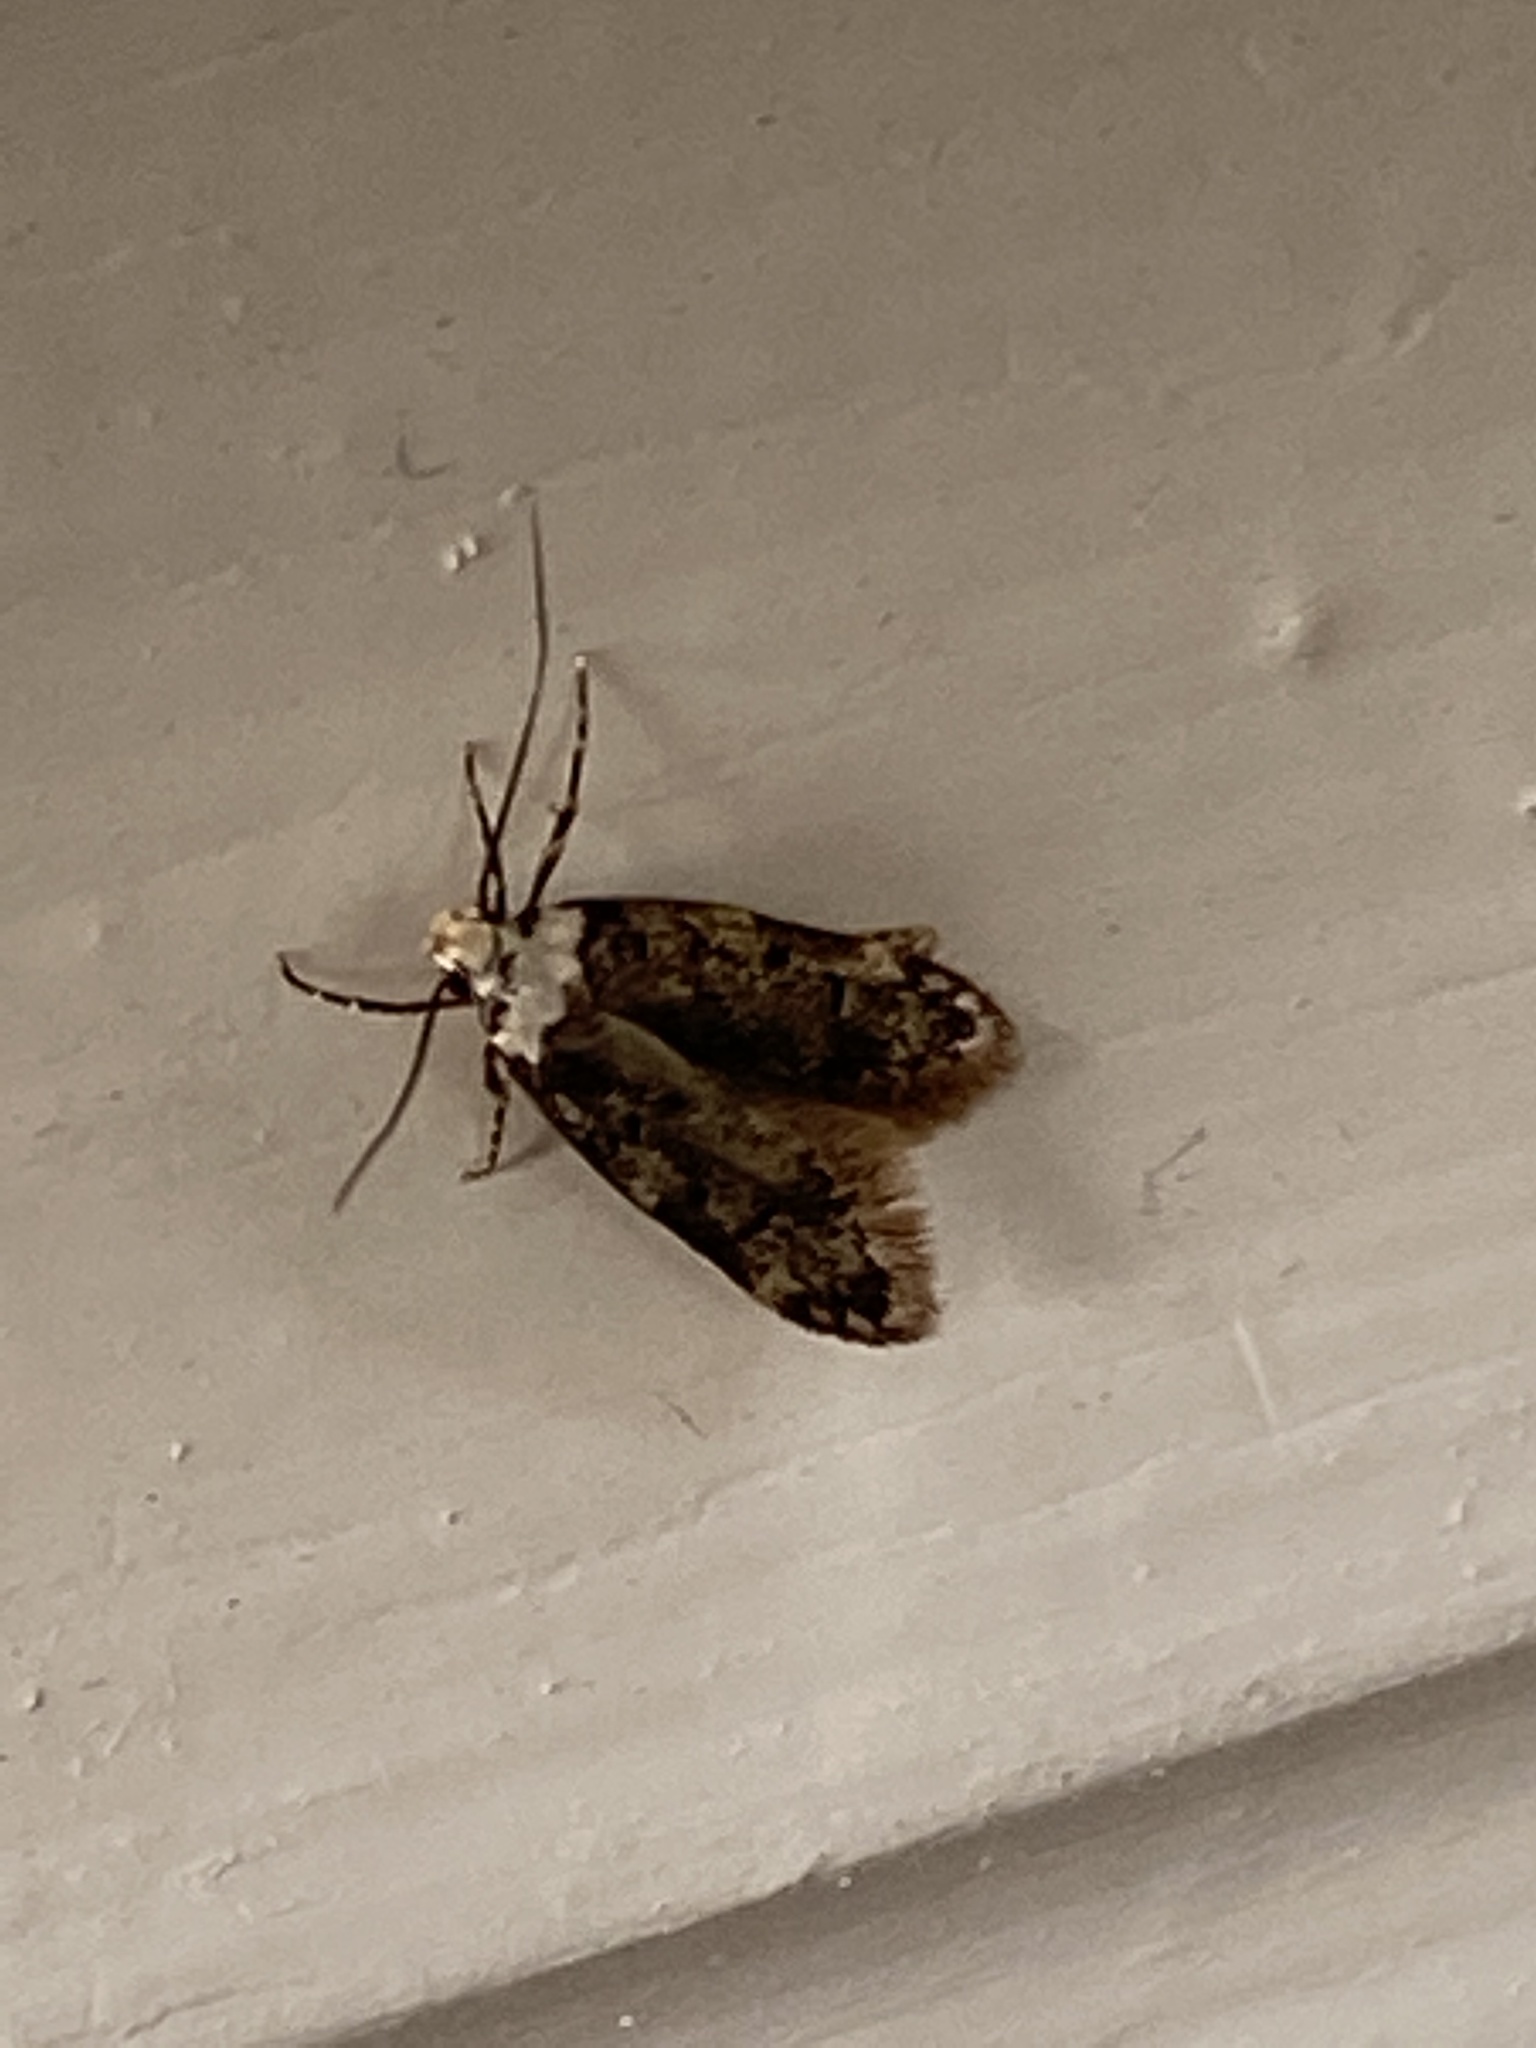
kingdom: Animalia
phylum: Arthropoda
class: Insecta
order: Lepidoptera
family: Oecophoridae
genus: Endrosis
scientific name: Endrosis sarcitrella
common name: White-shouldered house moth
